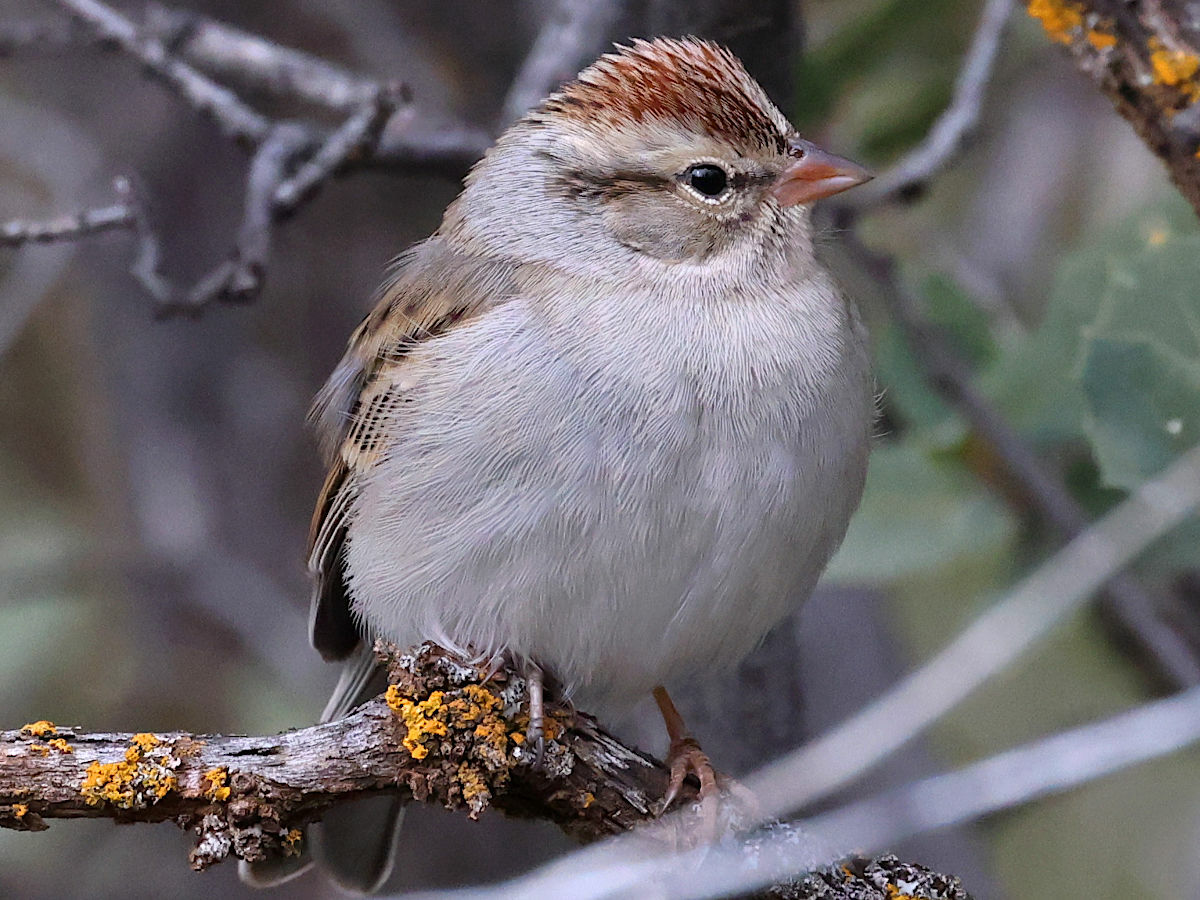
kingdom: Animalia
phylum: Chordata
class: Aves
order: Passeriformes
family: Passerellidae
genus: Spizella
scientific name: Spizella passerina
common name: Chipping sparrow
